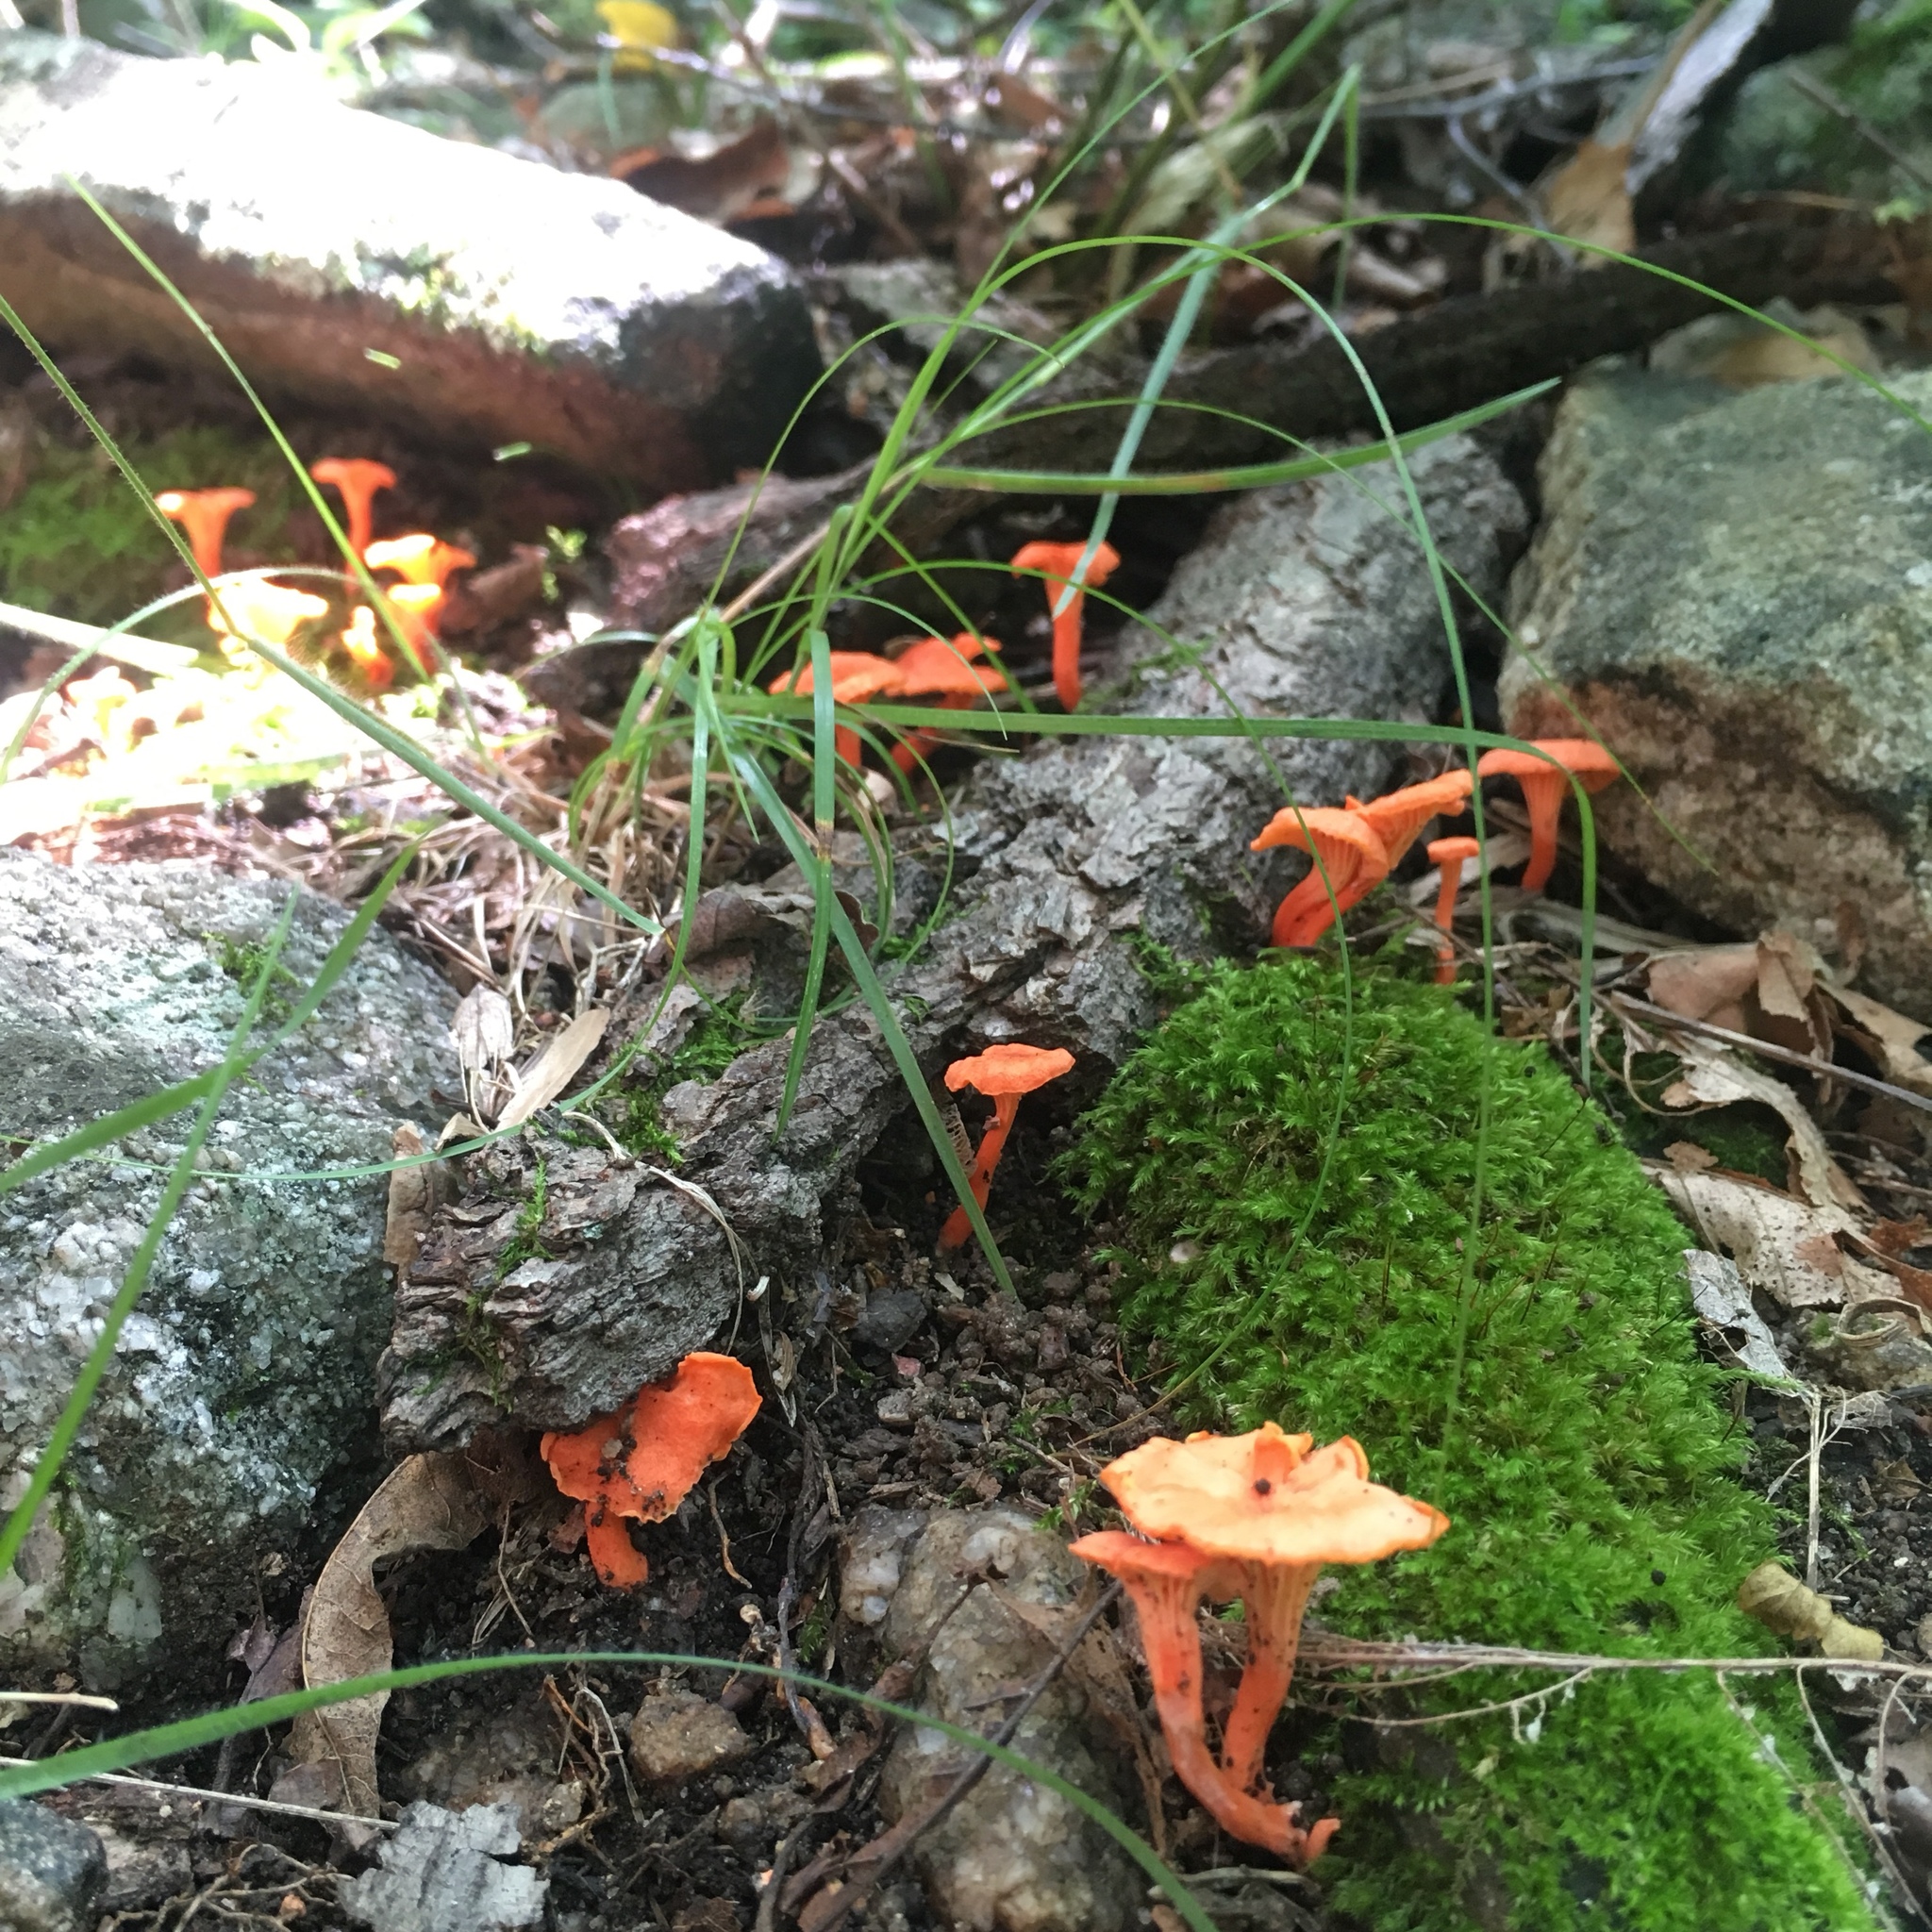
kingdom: Fungi
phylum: Basidiomycota
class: Agaricomycetes
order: Cantharellales
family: Hydnaceae
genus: Cantharellus
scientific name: Cantharellus cinnabarinus
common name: Cinnabar chanterelle
